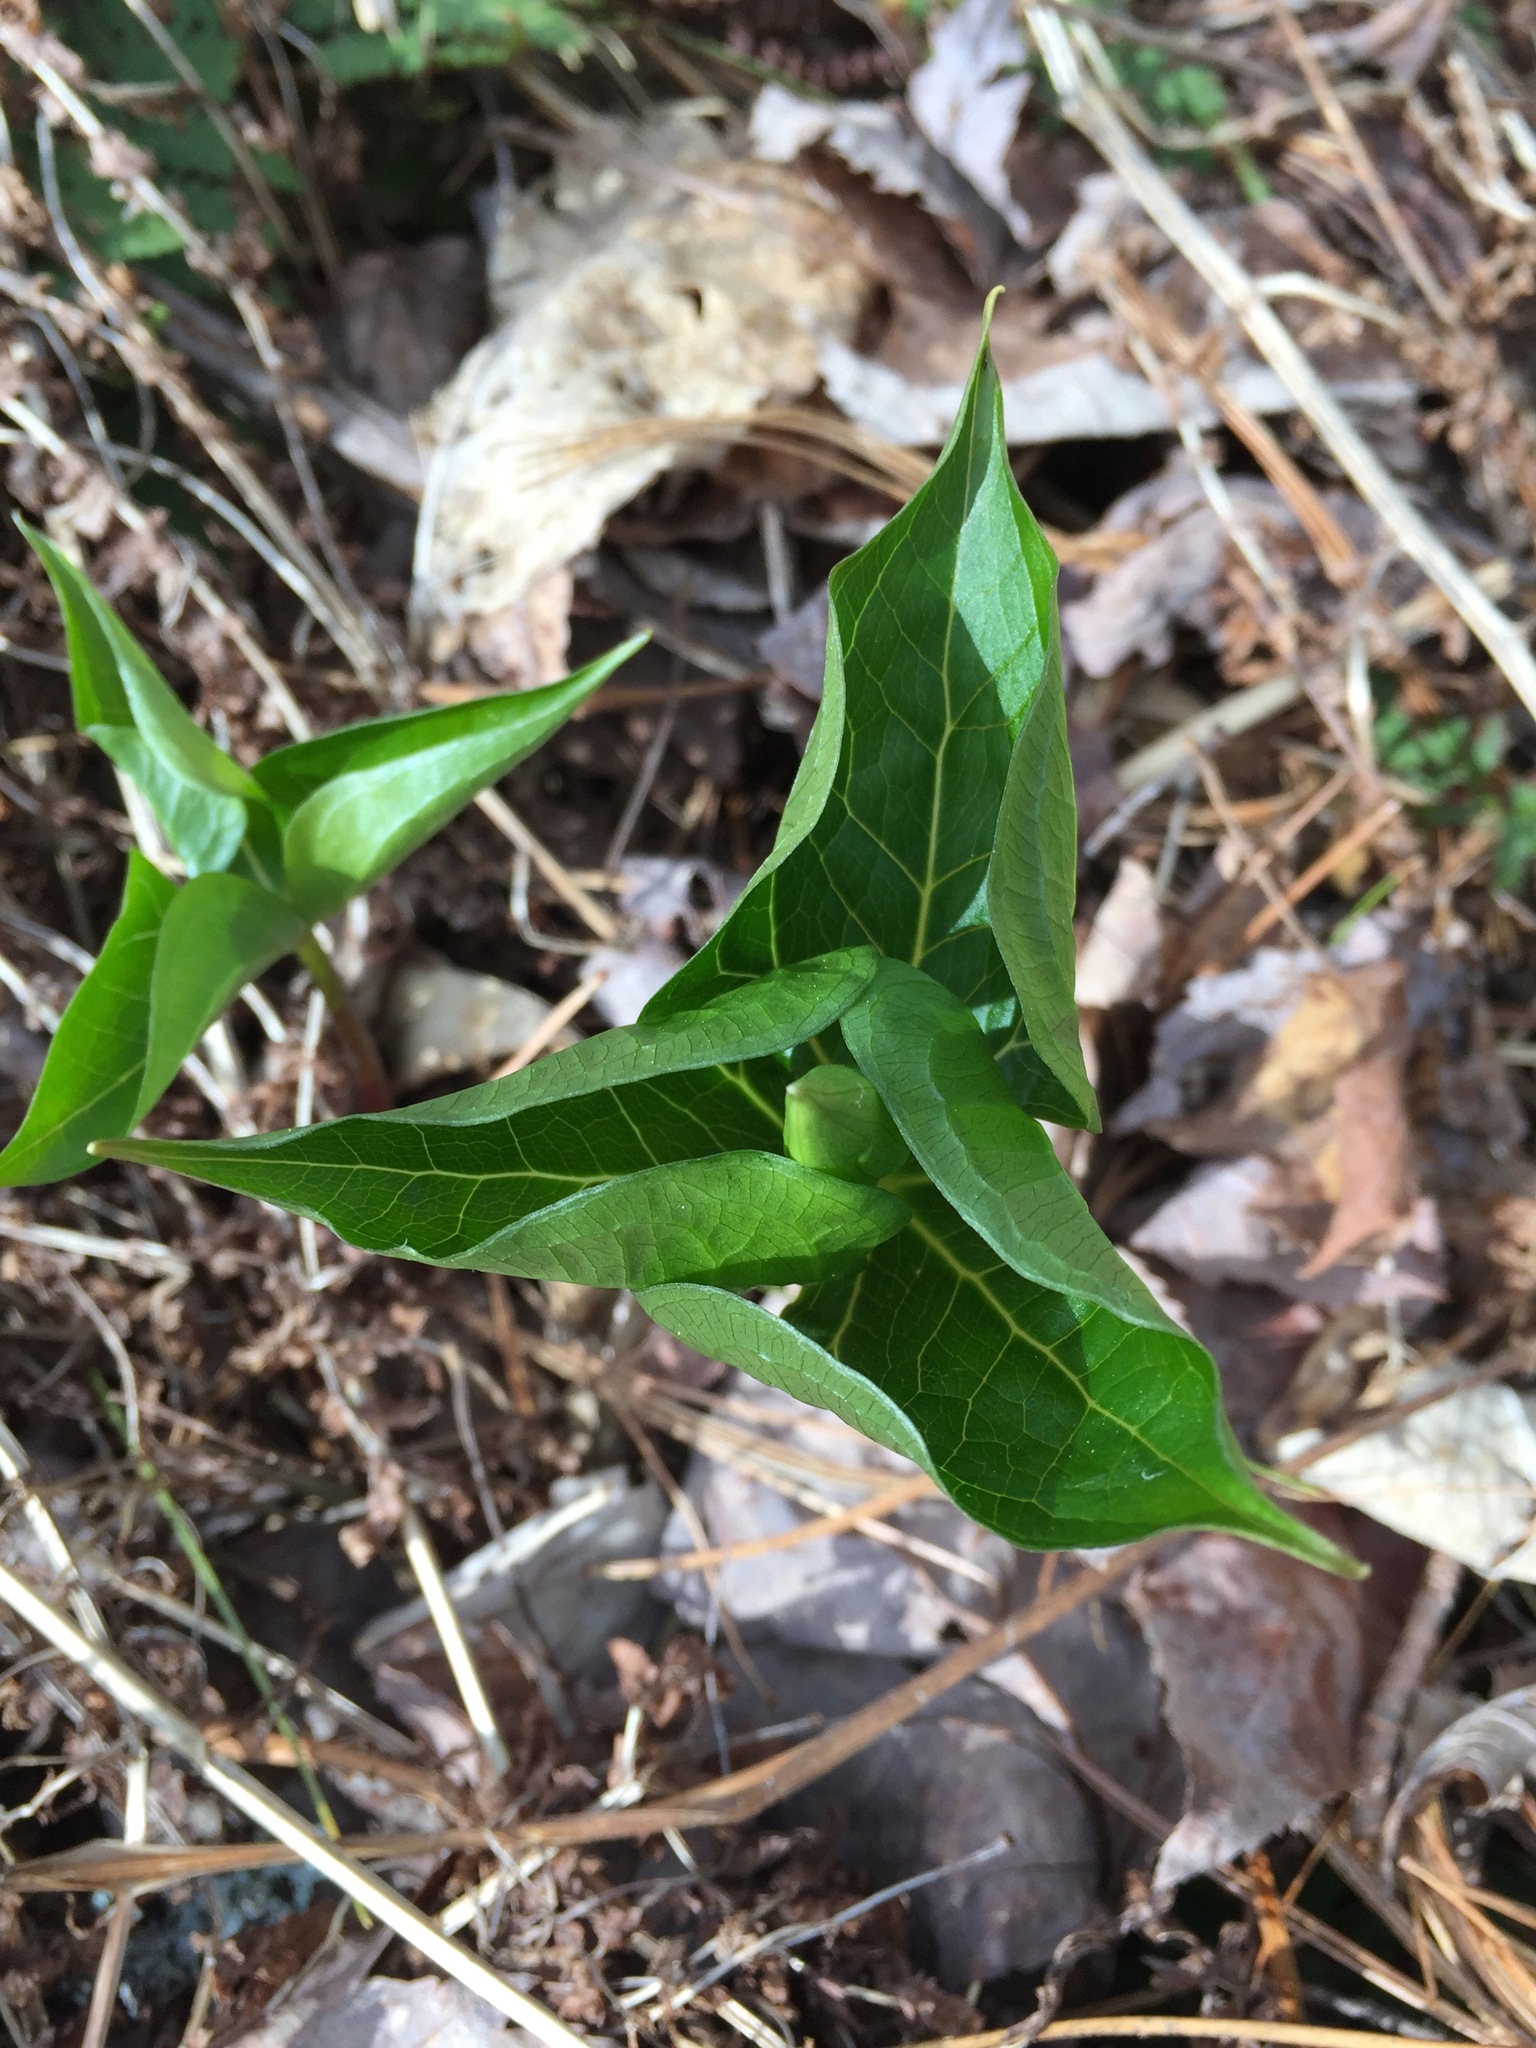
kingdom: Plantae
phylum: Tracheophyta
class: Liliopsida
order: Liliales
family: Melanthiaceae
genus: Trillium
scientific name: Trillium erectum
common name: Purple trillium
